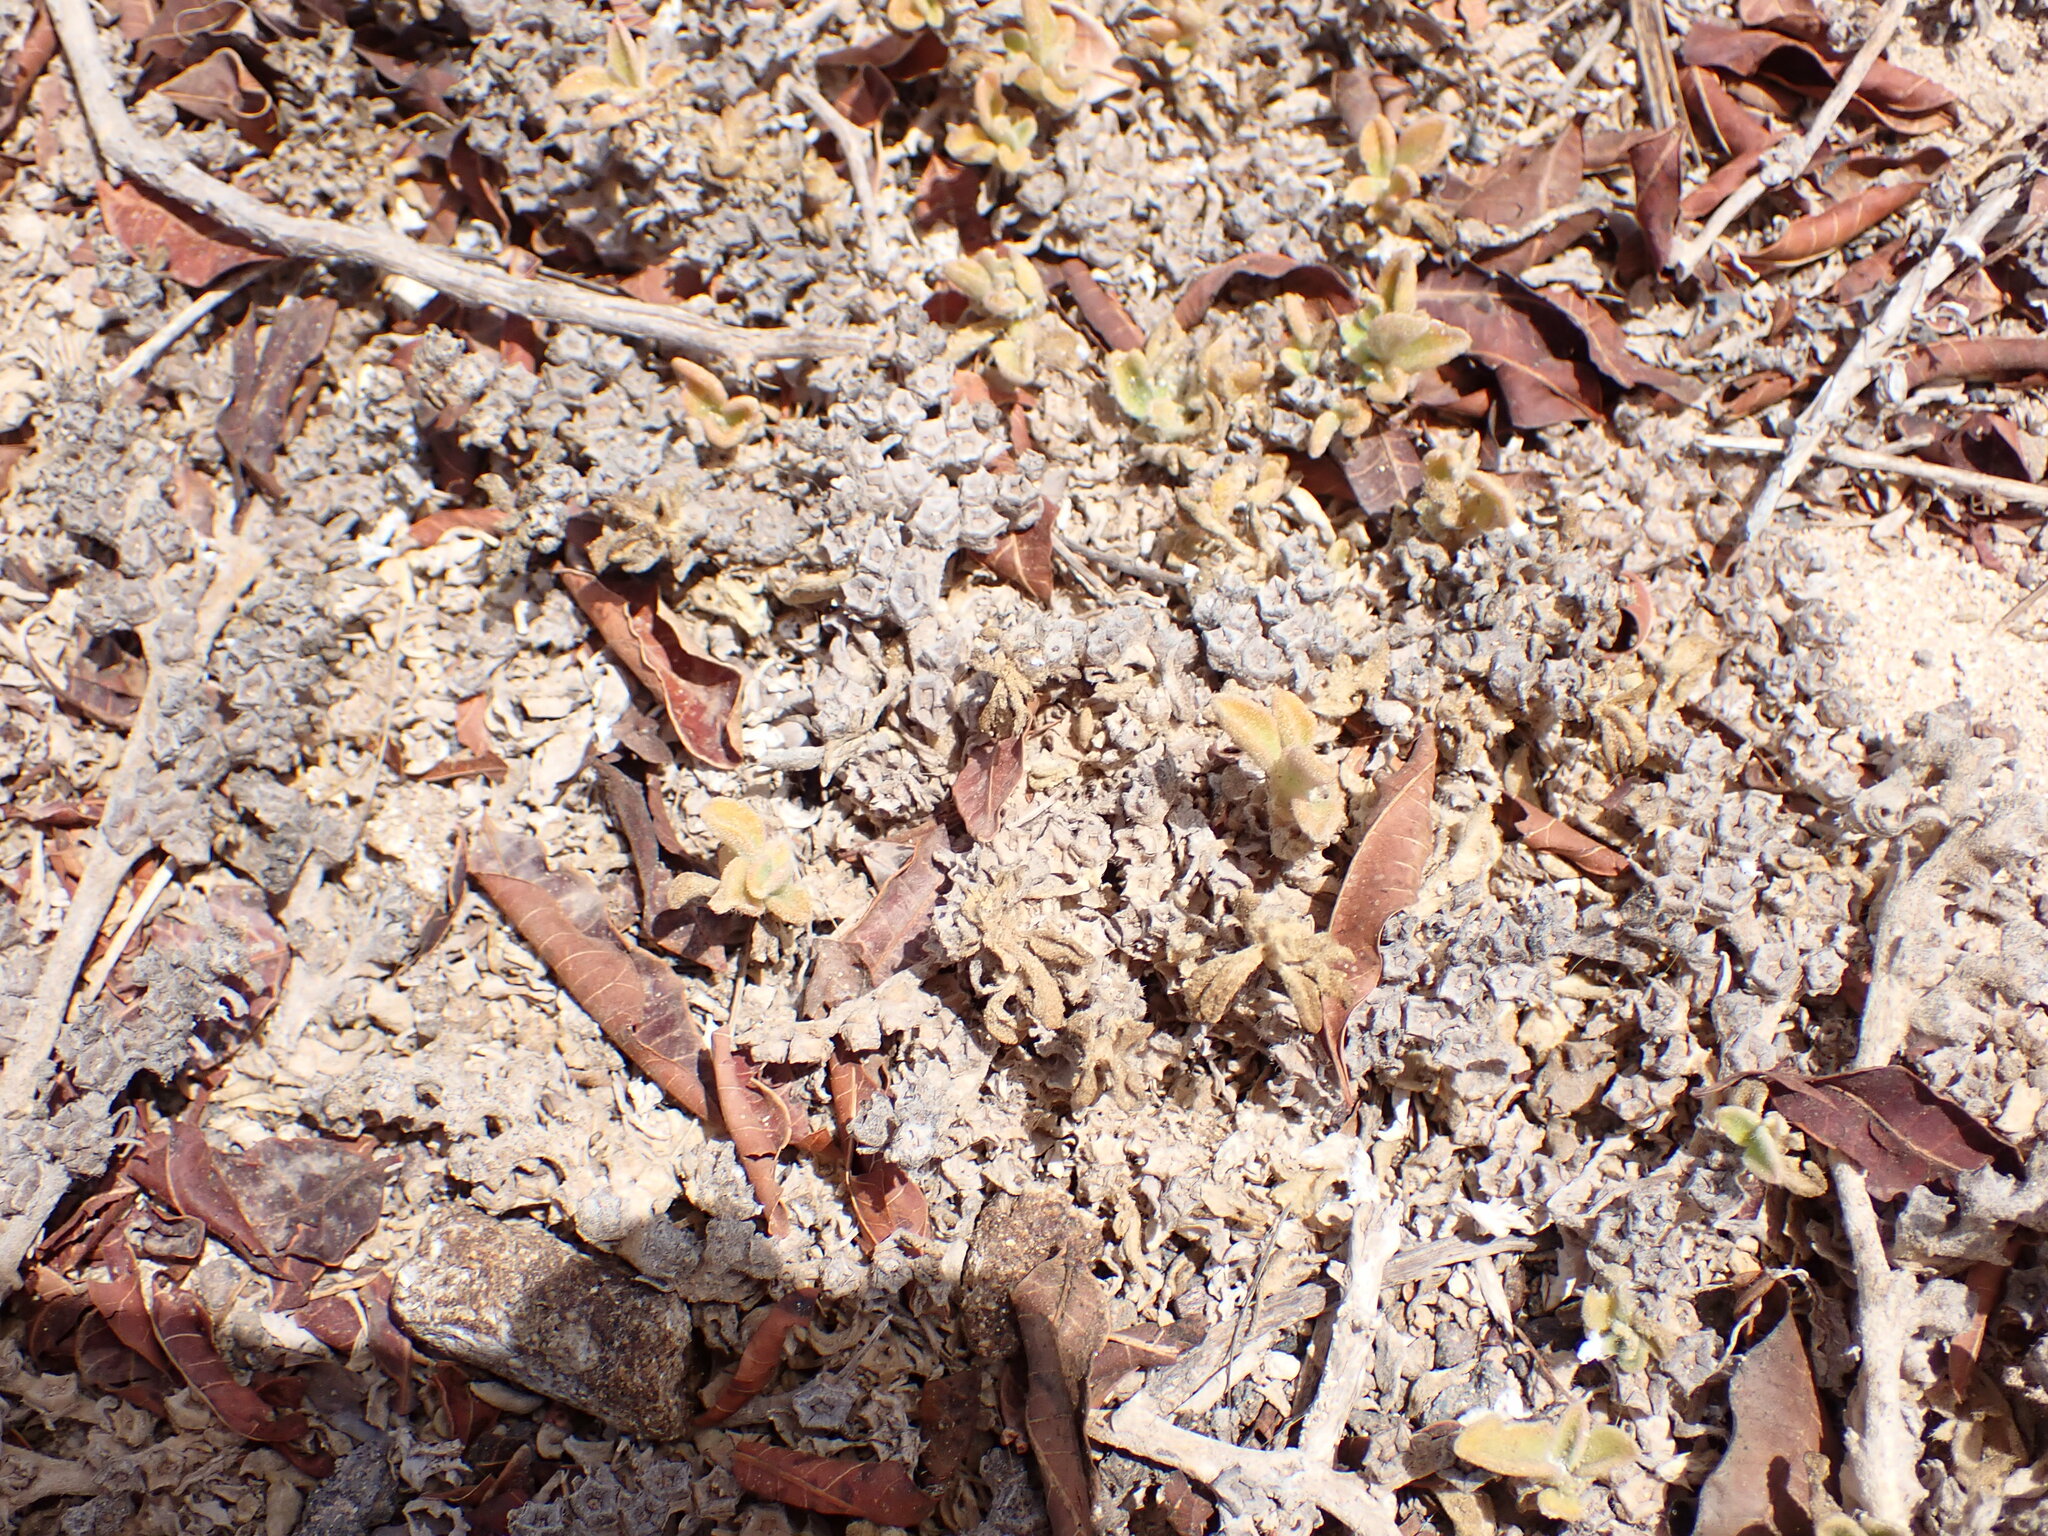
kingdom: Plantae
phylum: Tracheophyta
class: Magnoliopsida
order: Caryophyllales
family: Aizoaceae
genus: Aizoon
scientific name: Aizoon canariense
